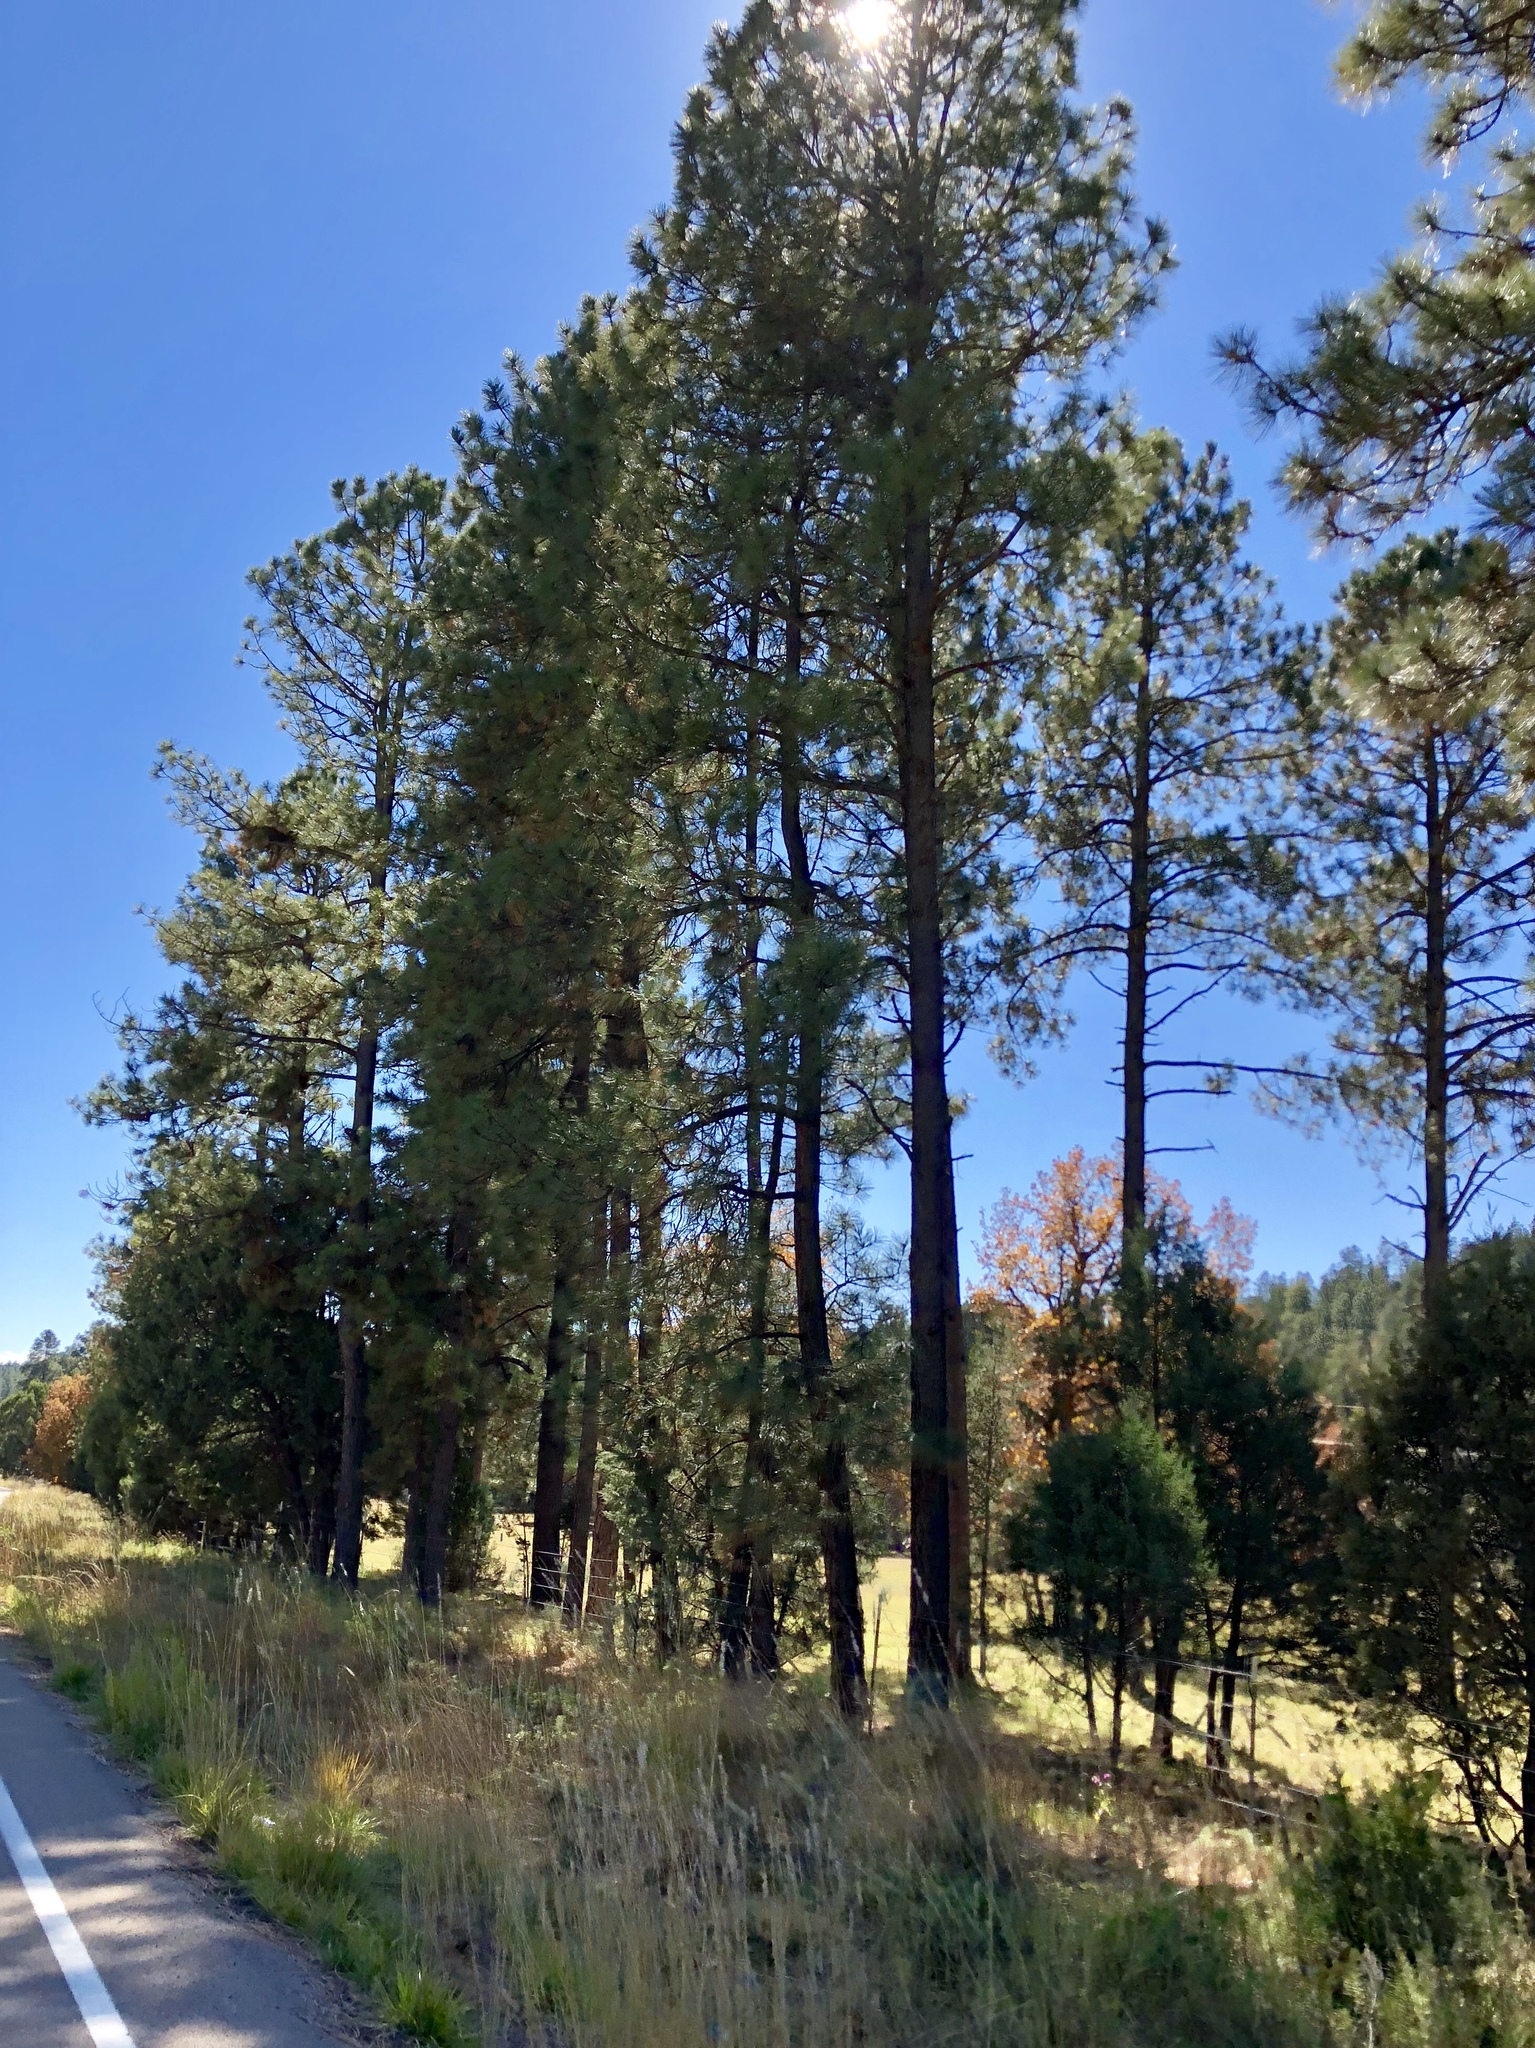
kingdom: Plantae
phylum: Tracheophyta
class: Pinopsida
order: Pinales
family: Pinaceae
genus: Pinus
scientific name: Pinus ponderosa
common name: Western yellow-pine
